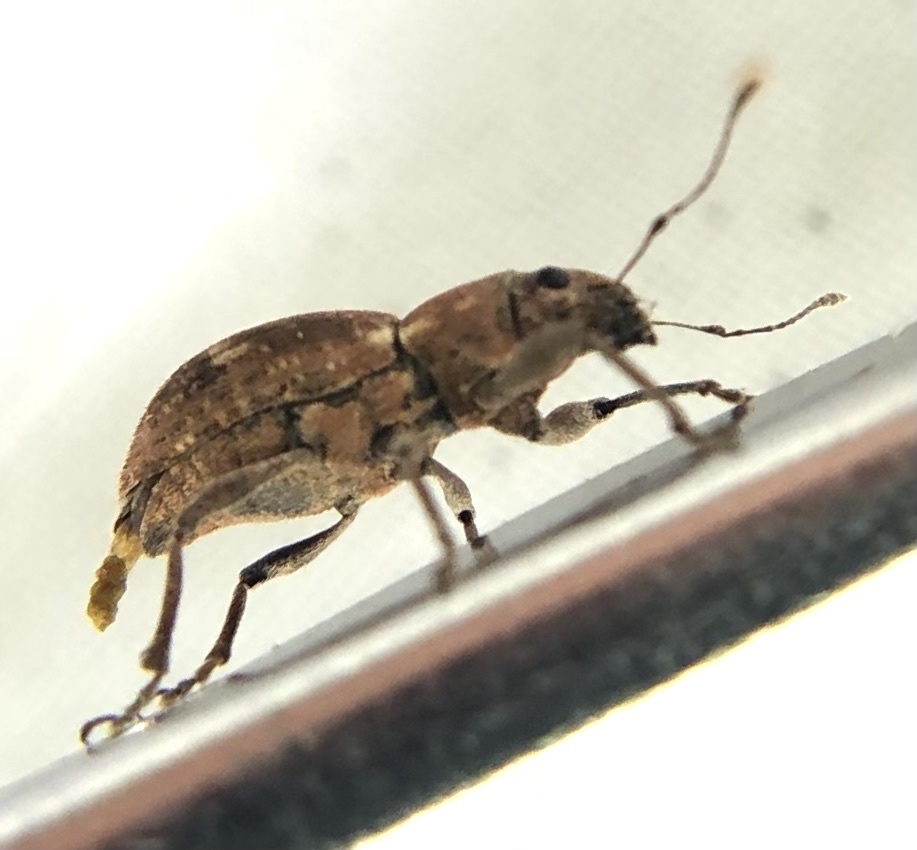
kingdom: Animalia
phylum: Arthropoda
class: Insecta
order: Coleoptera
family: Curculionidae
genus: Naupactus
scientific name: Naupactus cervinus
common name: Fuller rose beetle
